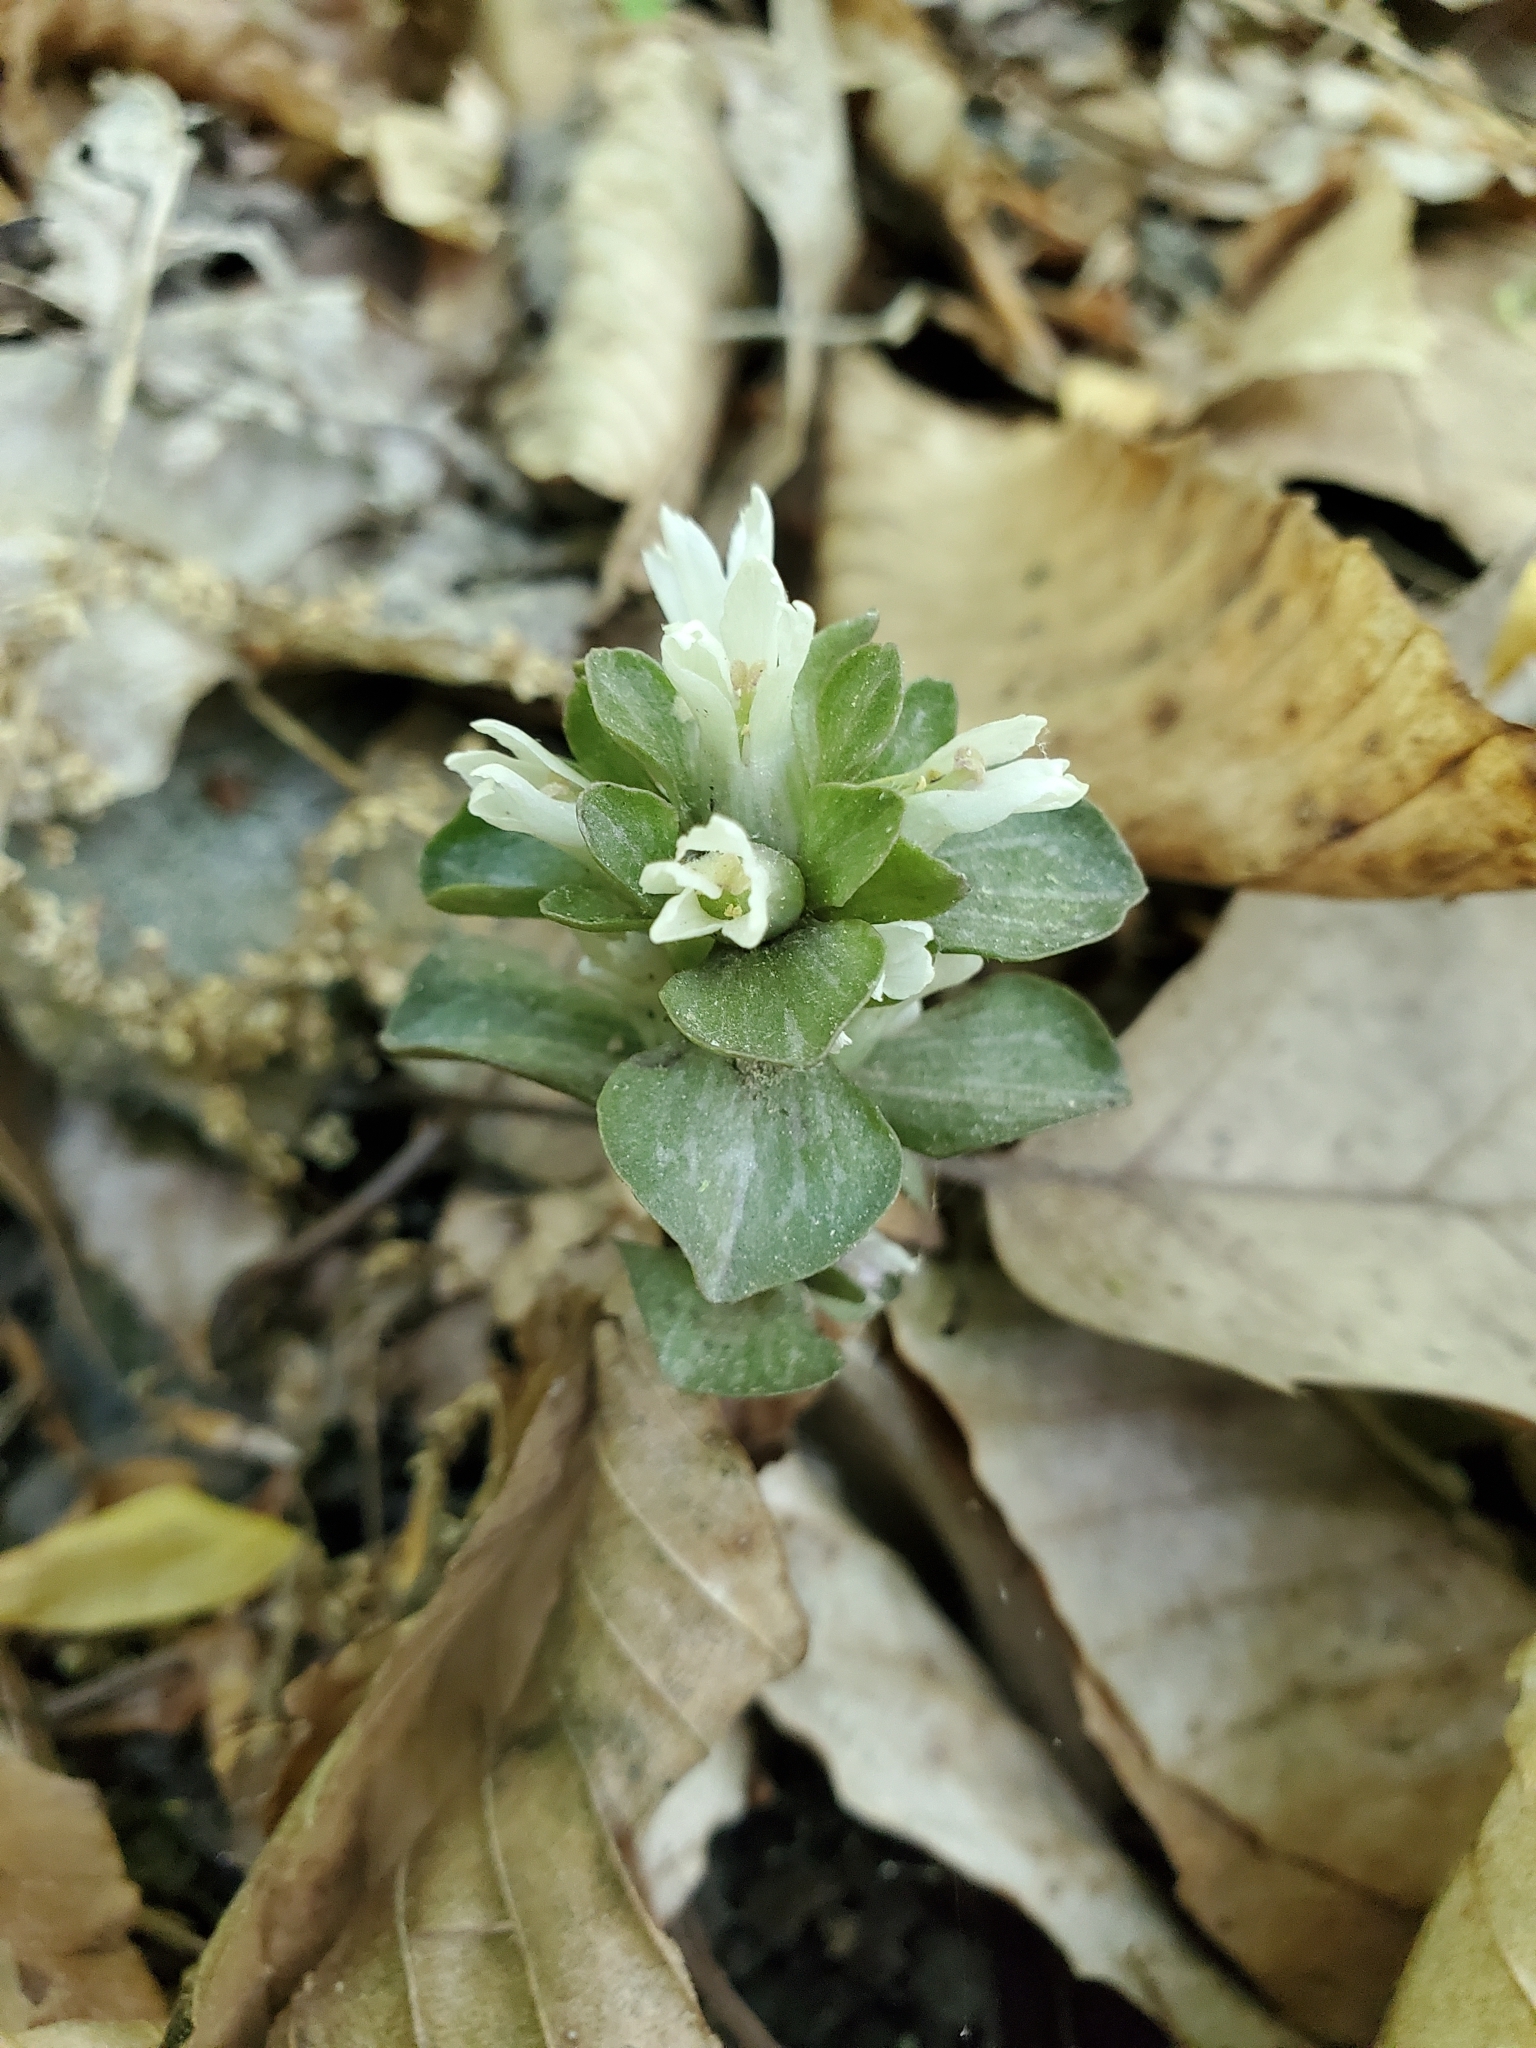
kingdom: Plantae
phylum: Tracheophyta
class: Magnoliopsida
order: Gentianales
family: Gentianaceae
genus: Obolaria
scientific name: Obolaria virginica
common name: Pennywort
